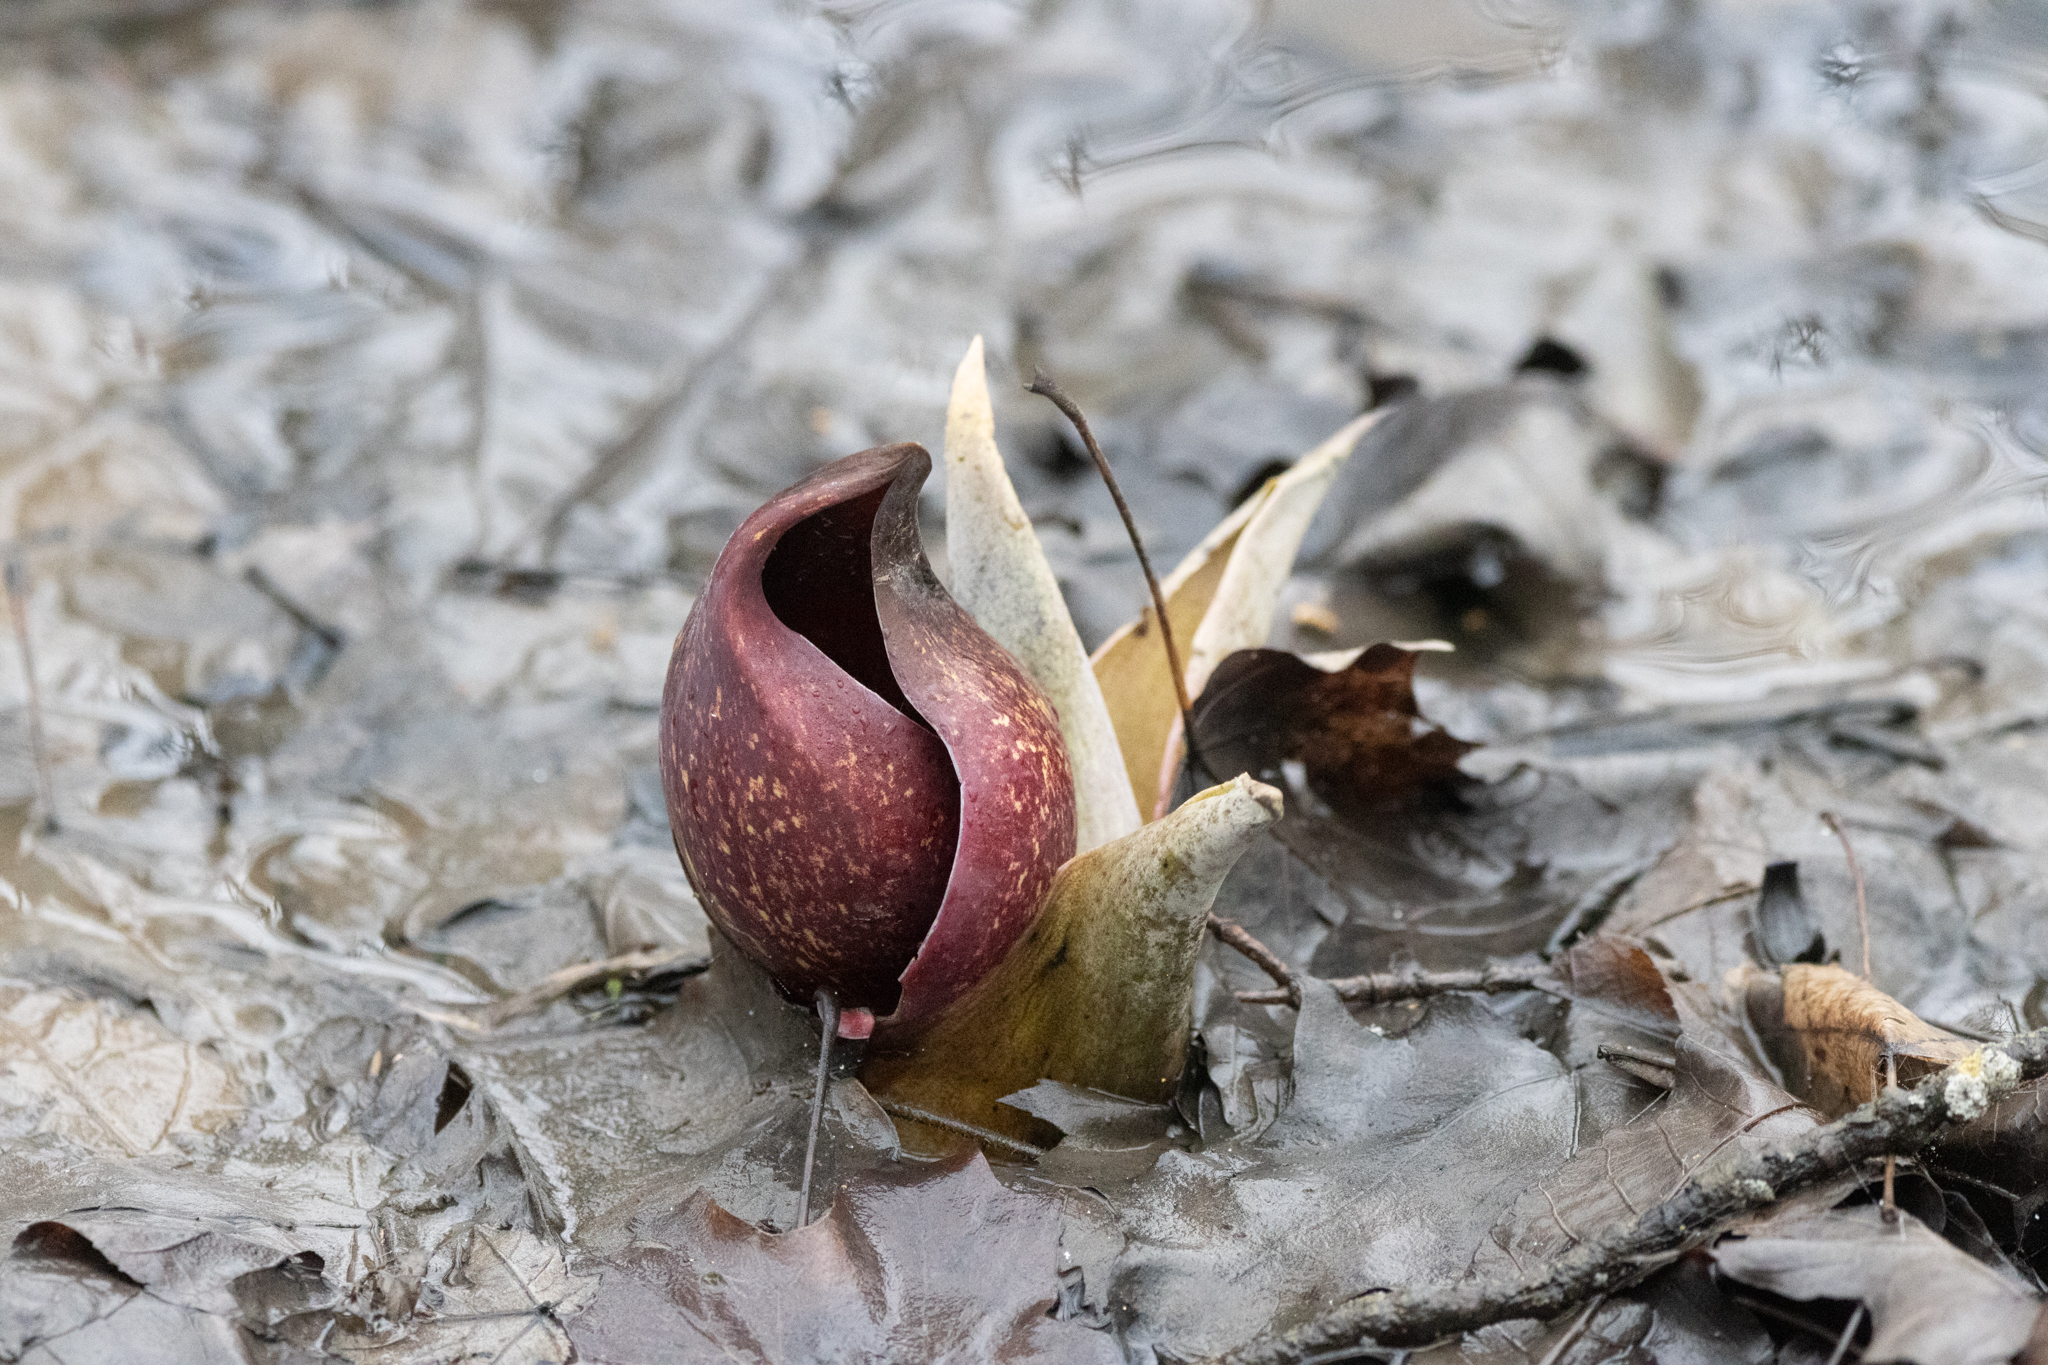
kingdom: Plantae
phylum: Tracheophyta
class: Liliopsida
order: Alismatales
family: Araceae
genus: Symplocarpus
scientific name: Symplocarpus foetidus
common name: Eastern skunk cabbage
